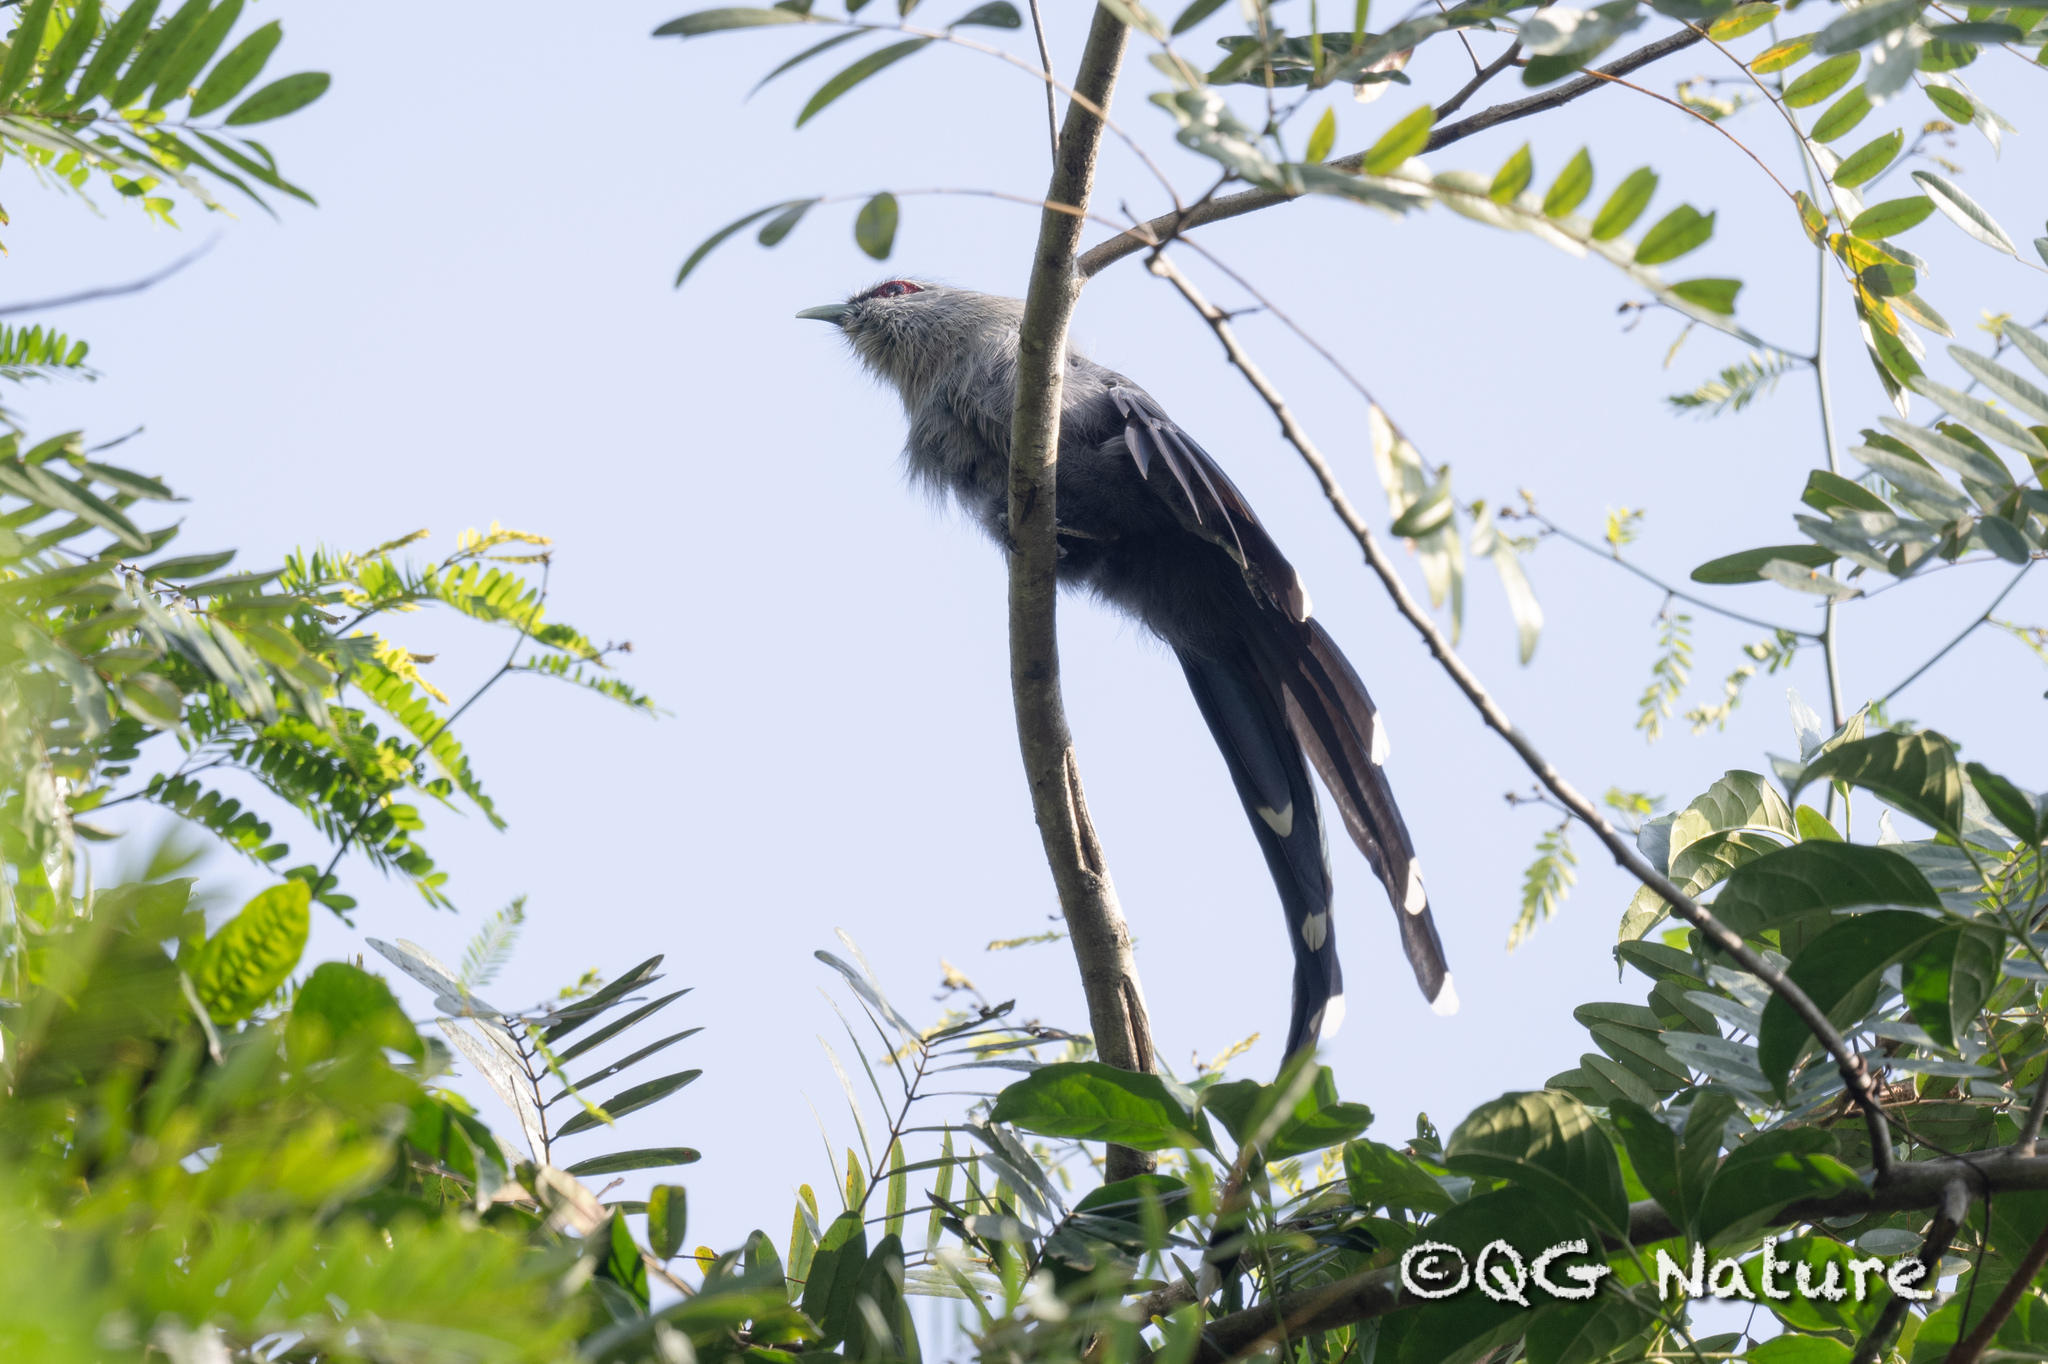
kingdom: Animalia
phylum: Chordata
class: Aves
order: Cuculiformes
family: Cuculidae
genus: Rhopodytes
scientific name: Rhopodytes tristis
